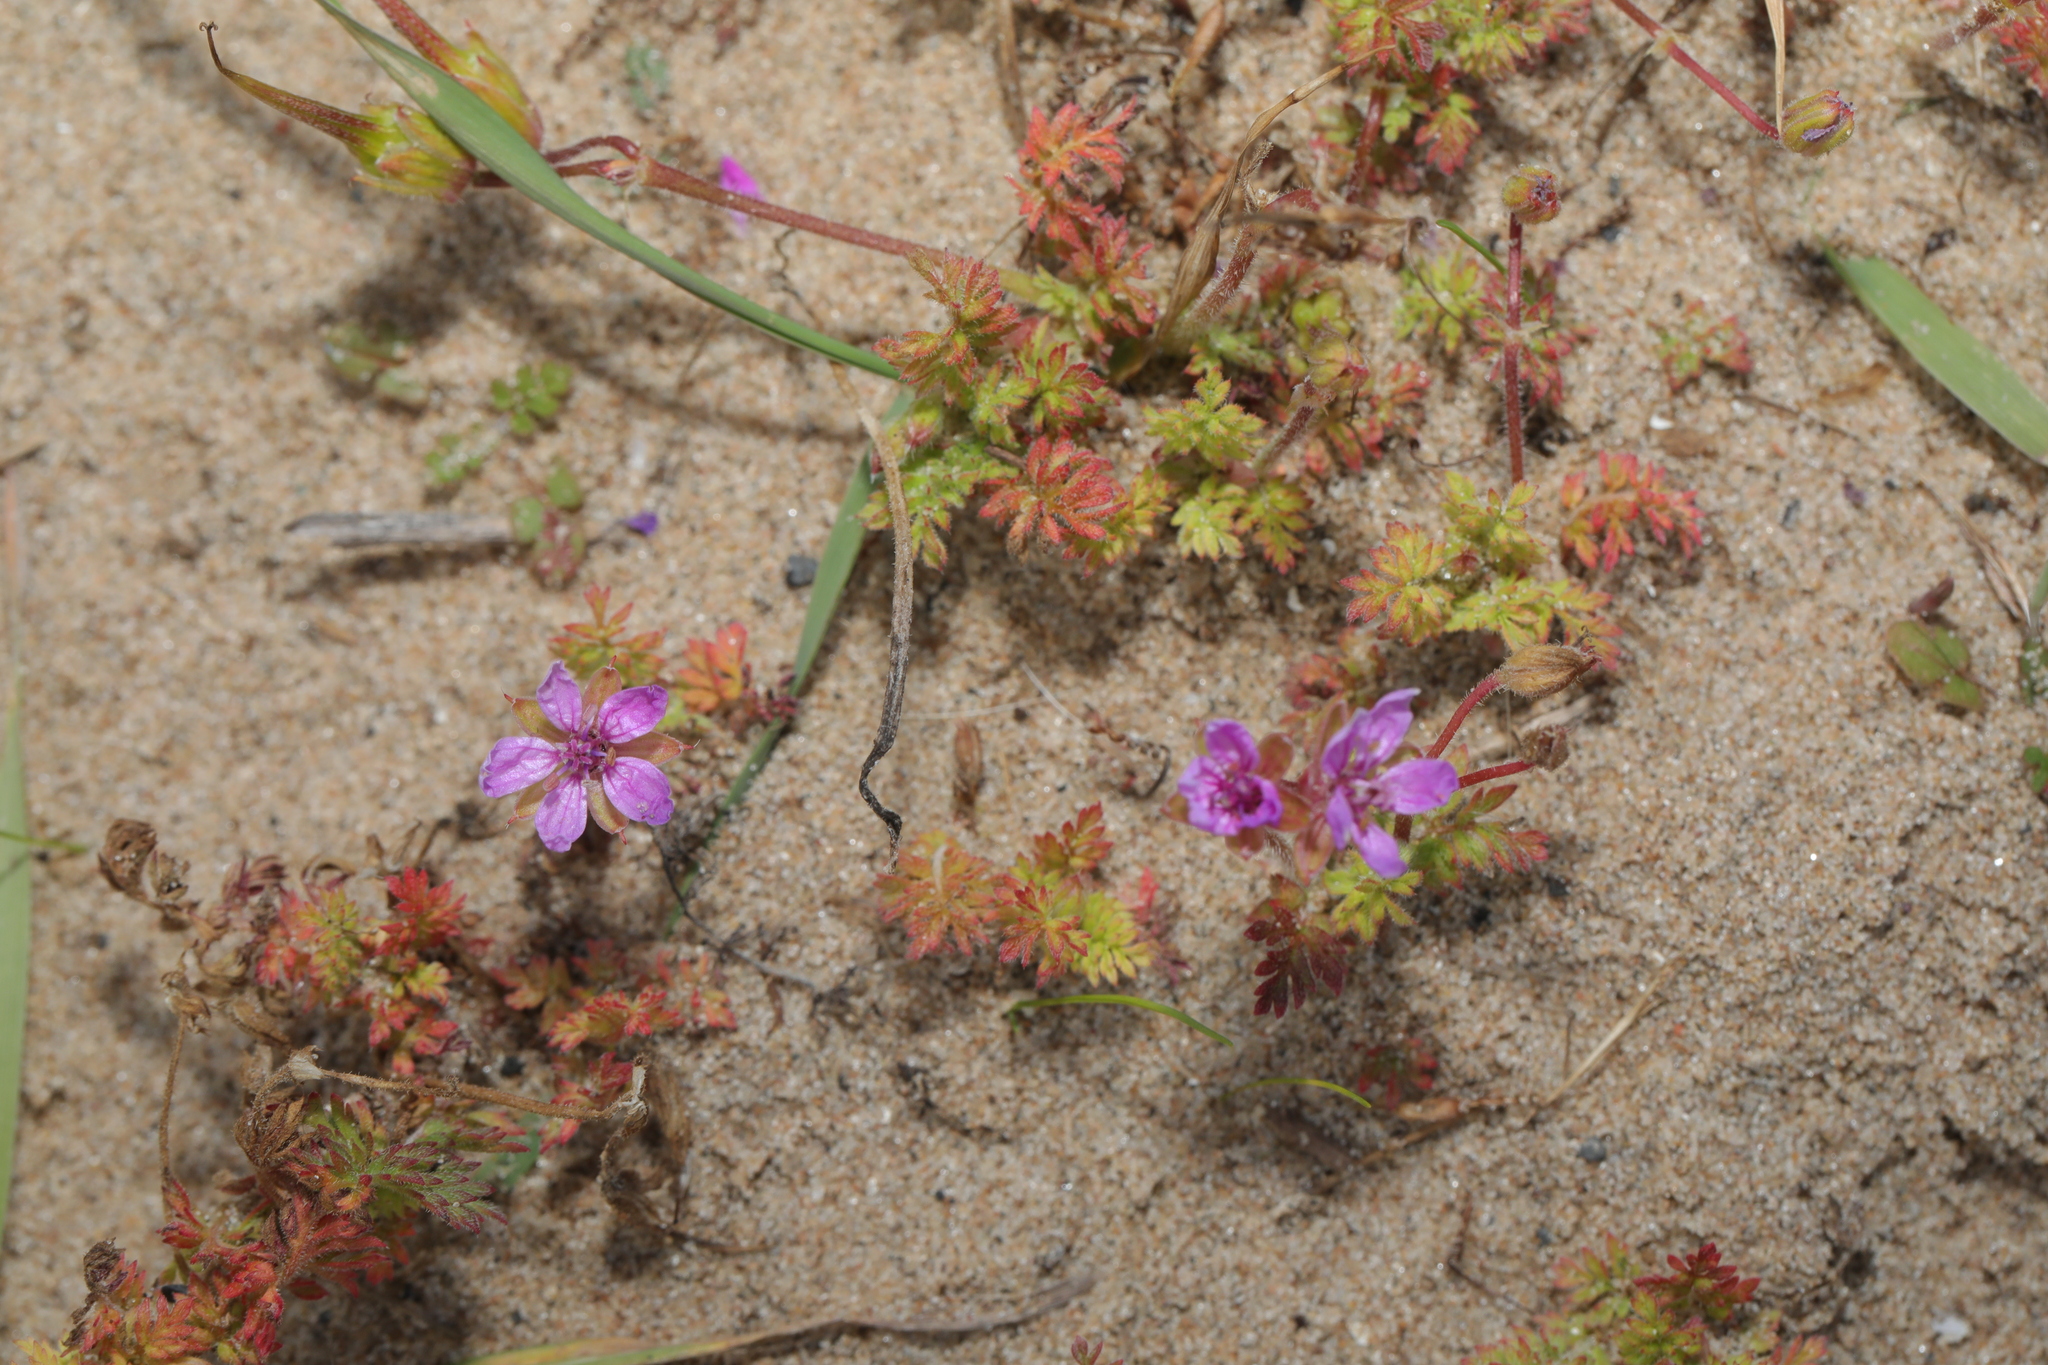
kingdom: Plantae
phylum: Tracheophyta
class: Magnoliopsida
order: Geraniales
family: Geraniaceae
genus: Erodium
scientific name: Erodium cicutarium
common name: Common stork's-bill
